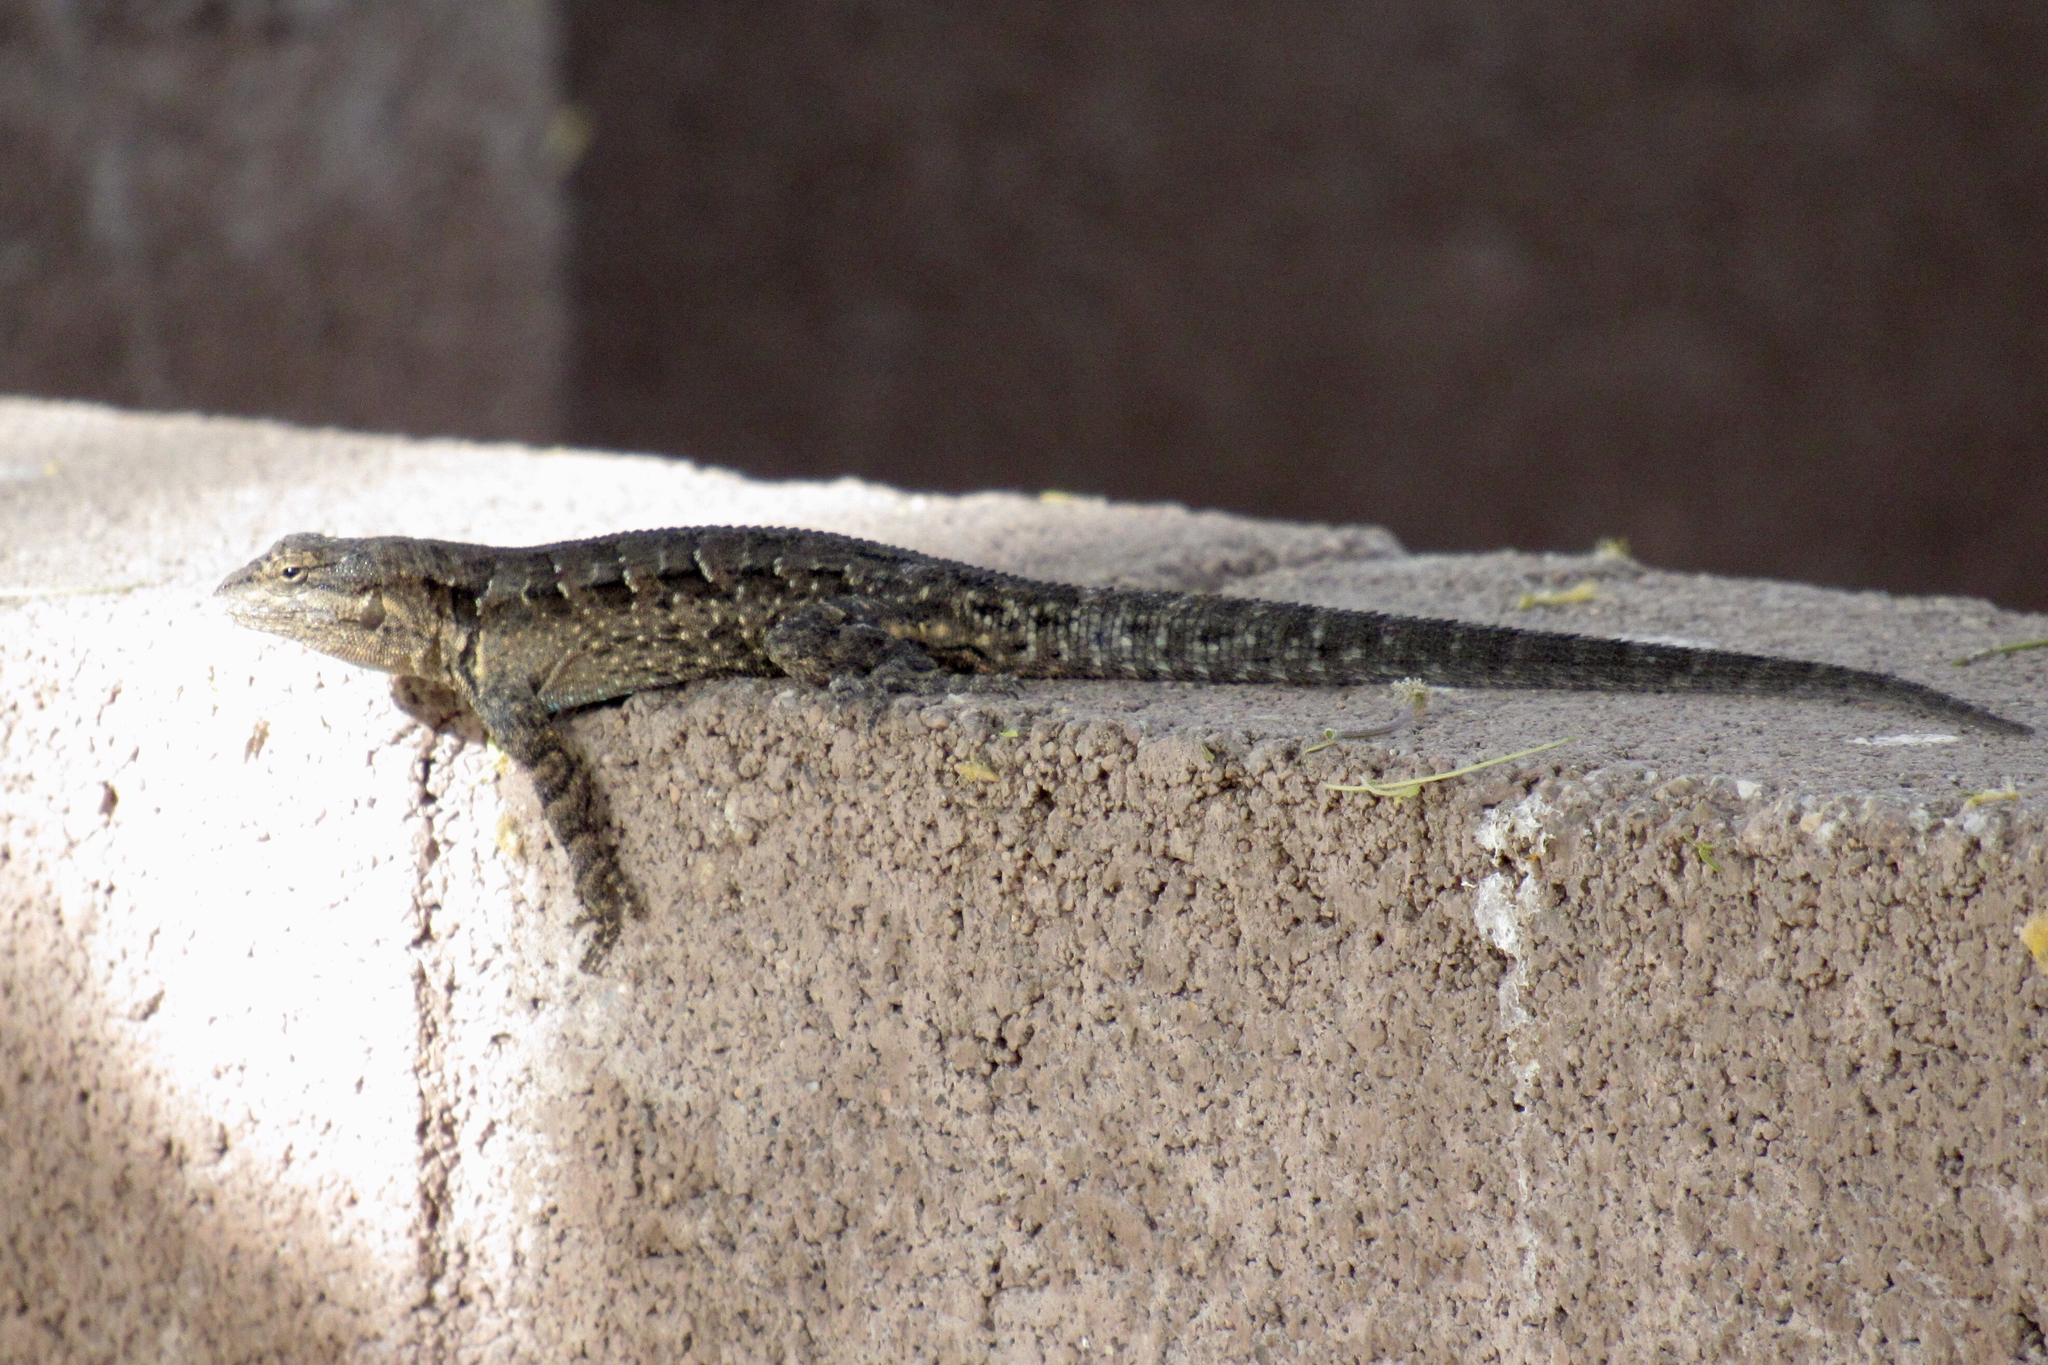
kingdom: Animalia
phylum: Chordata
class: Squamata
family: Phrynosomatidae
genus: Urosaurus
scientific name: Urosaurus ornatus
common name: Ornate tree lizard
